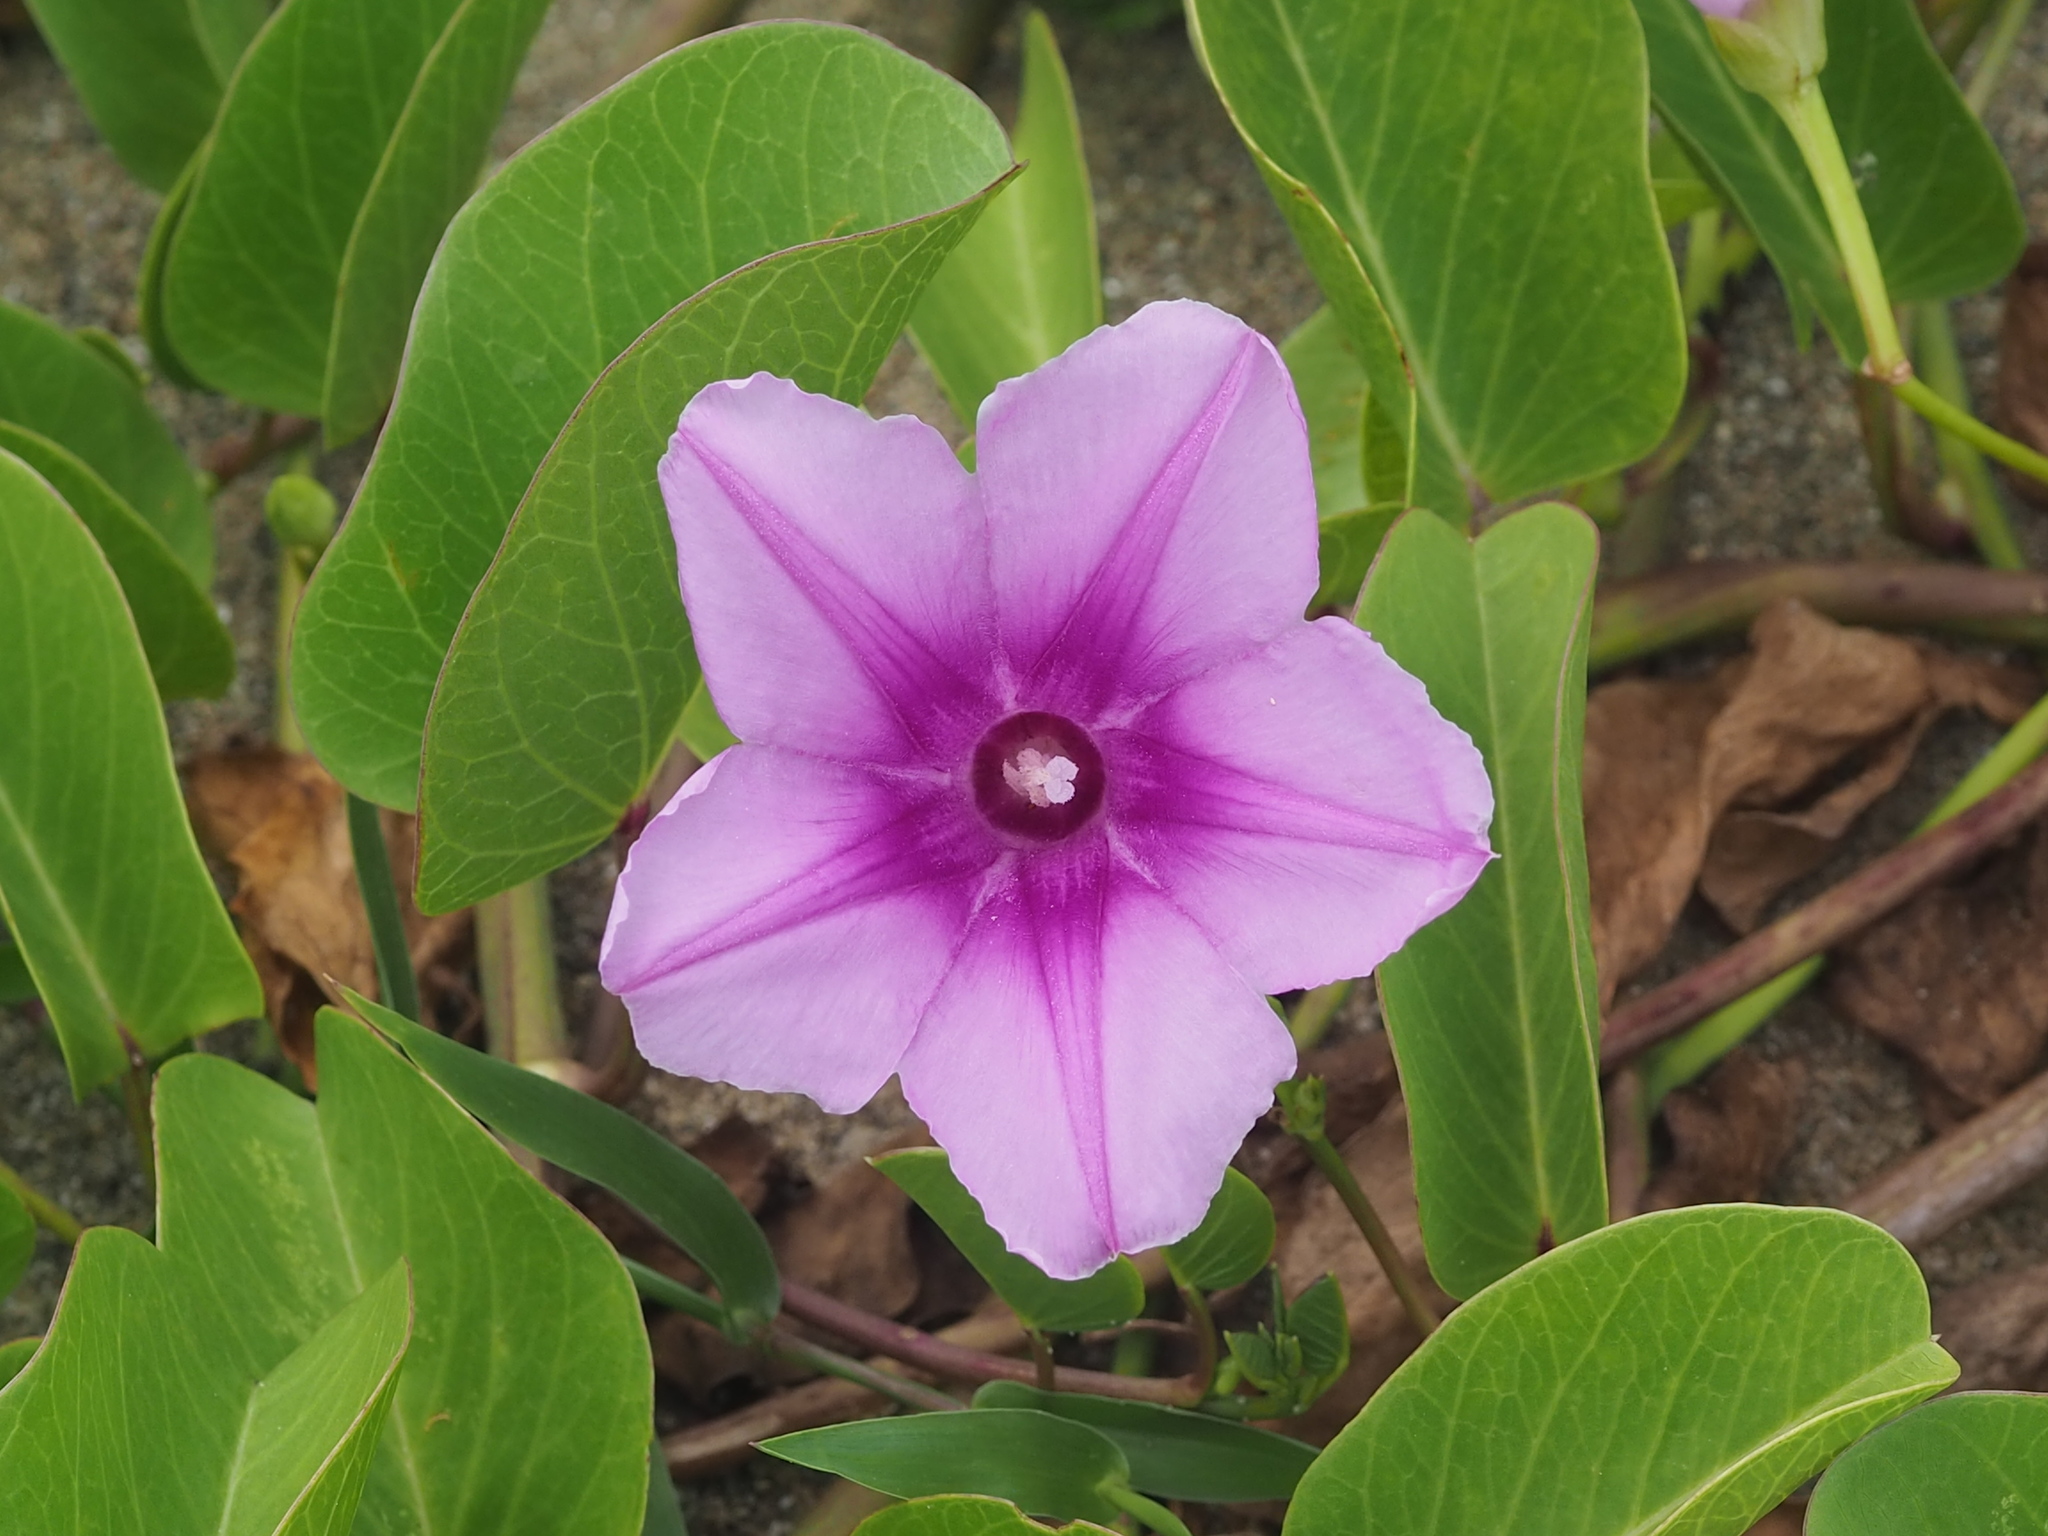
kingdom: Plantae
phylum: Tracheophyta
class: Magnoliopsida
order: Solanales
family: Convolvulaceae
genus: Ipomoea
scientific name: Ipomoea pes-caprae
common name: Beach morning glory
